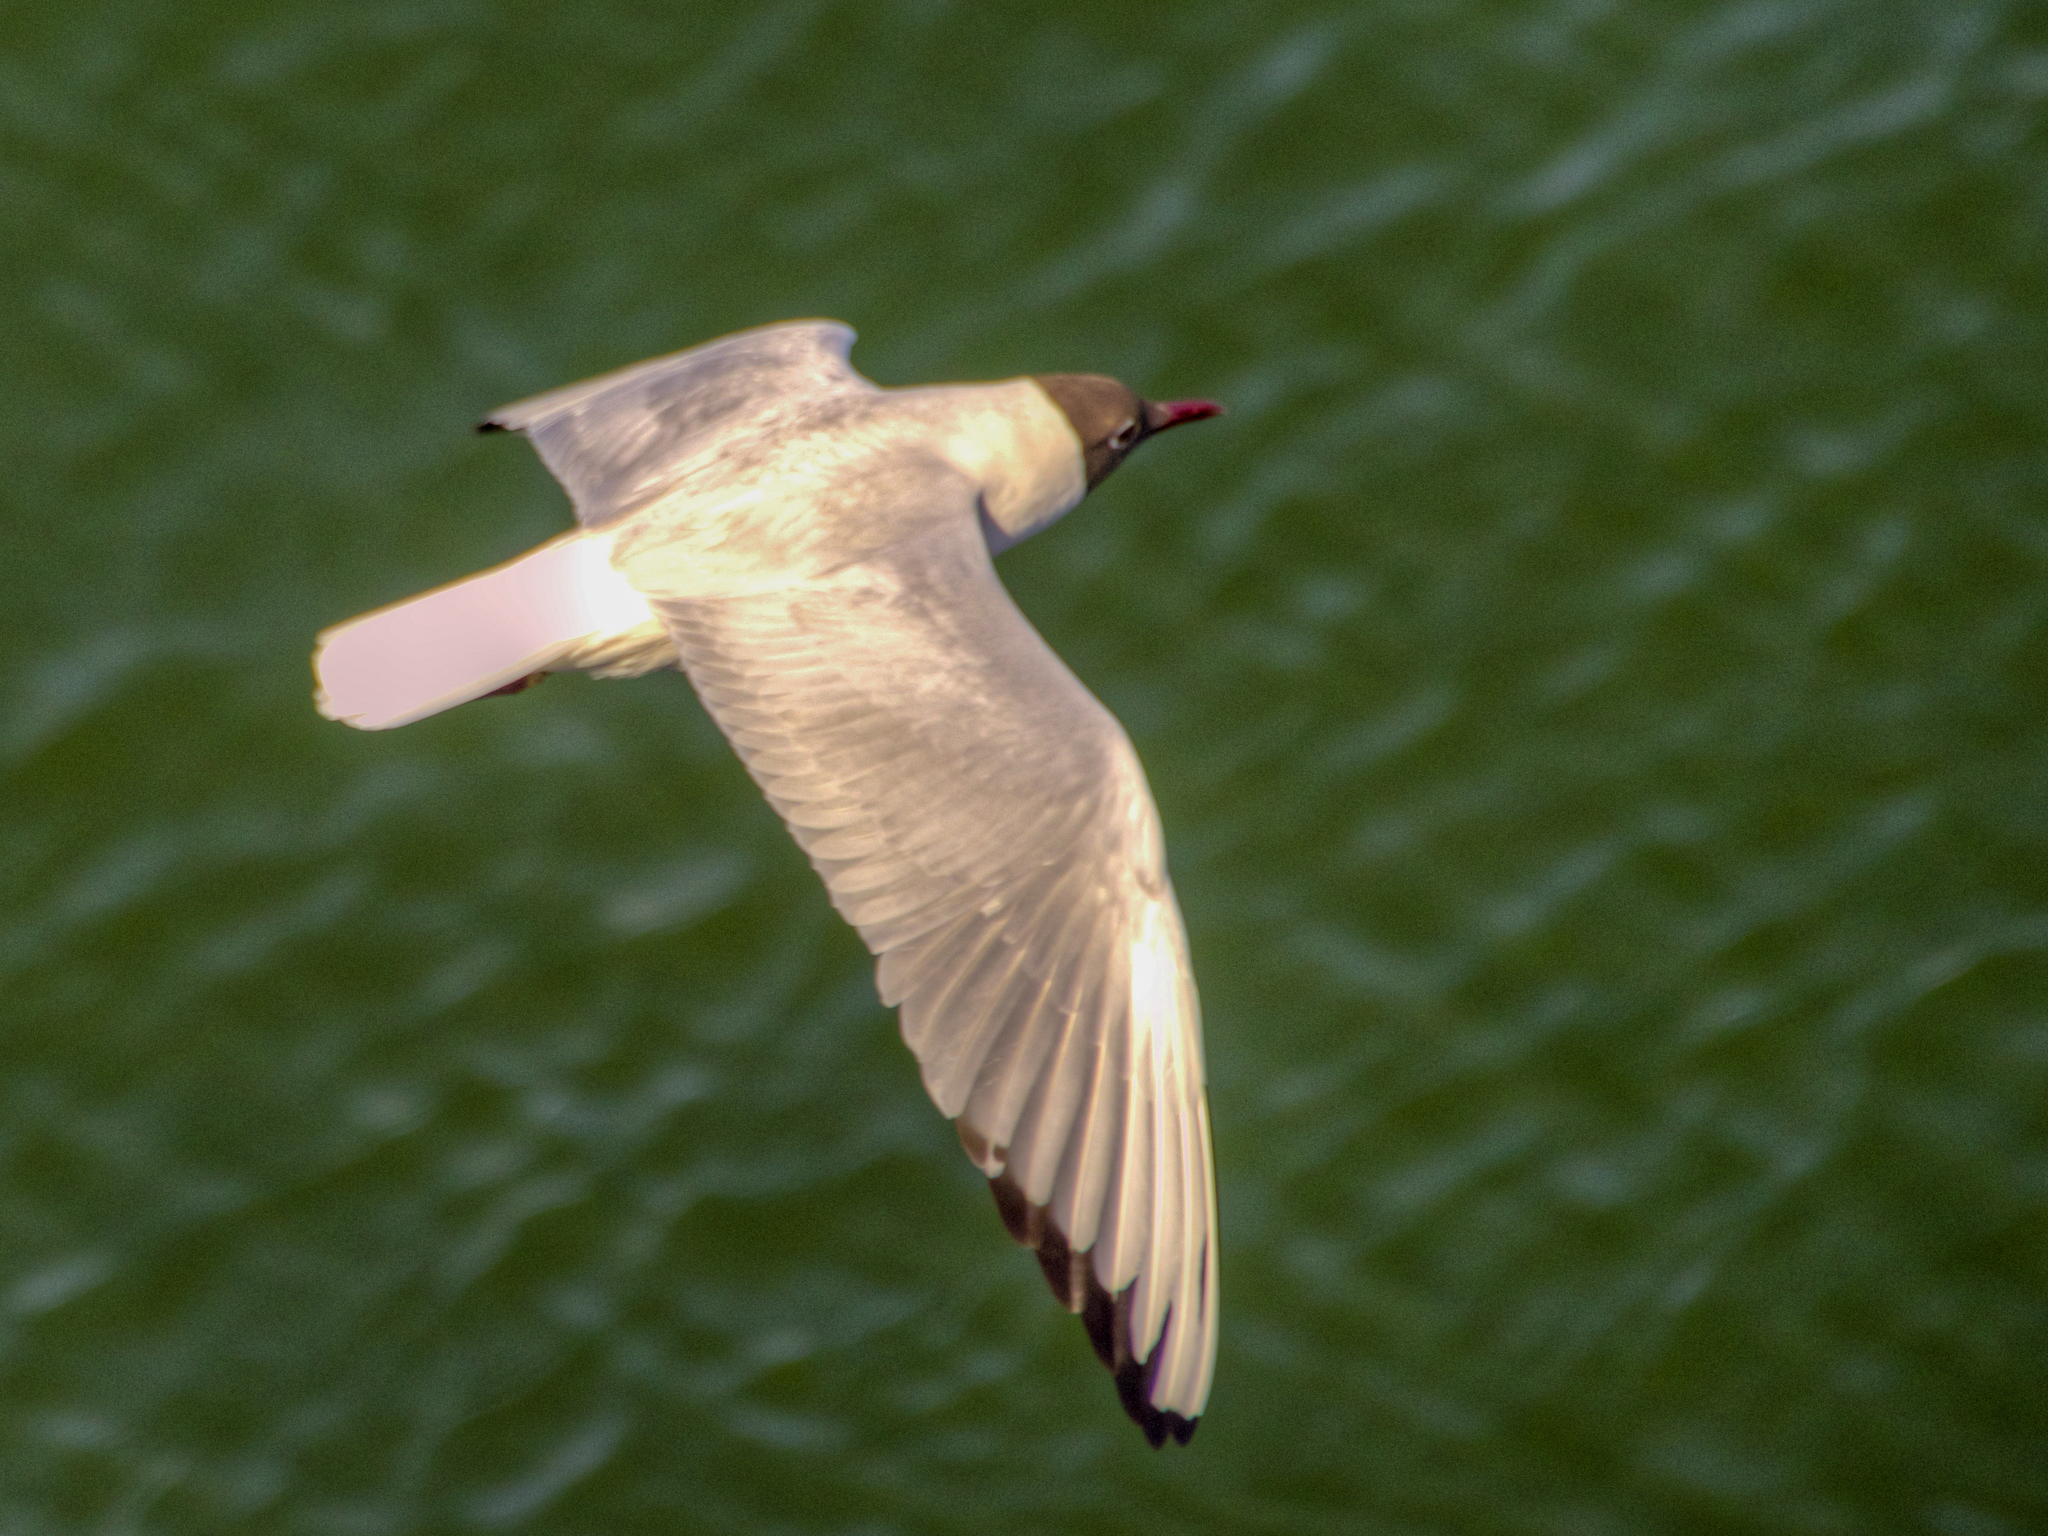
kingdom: Animalia
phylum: Chordata
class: Aves
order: Charadriiformes
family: Laridae
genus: Chroicocephalus
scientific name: Chroicocephalus ridibundus
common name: Black-headed gull
